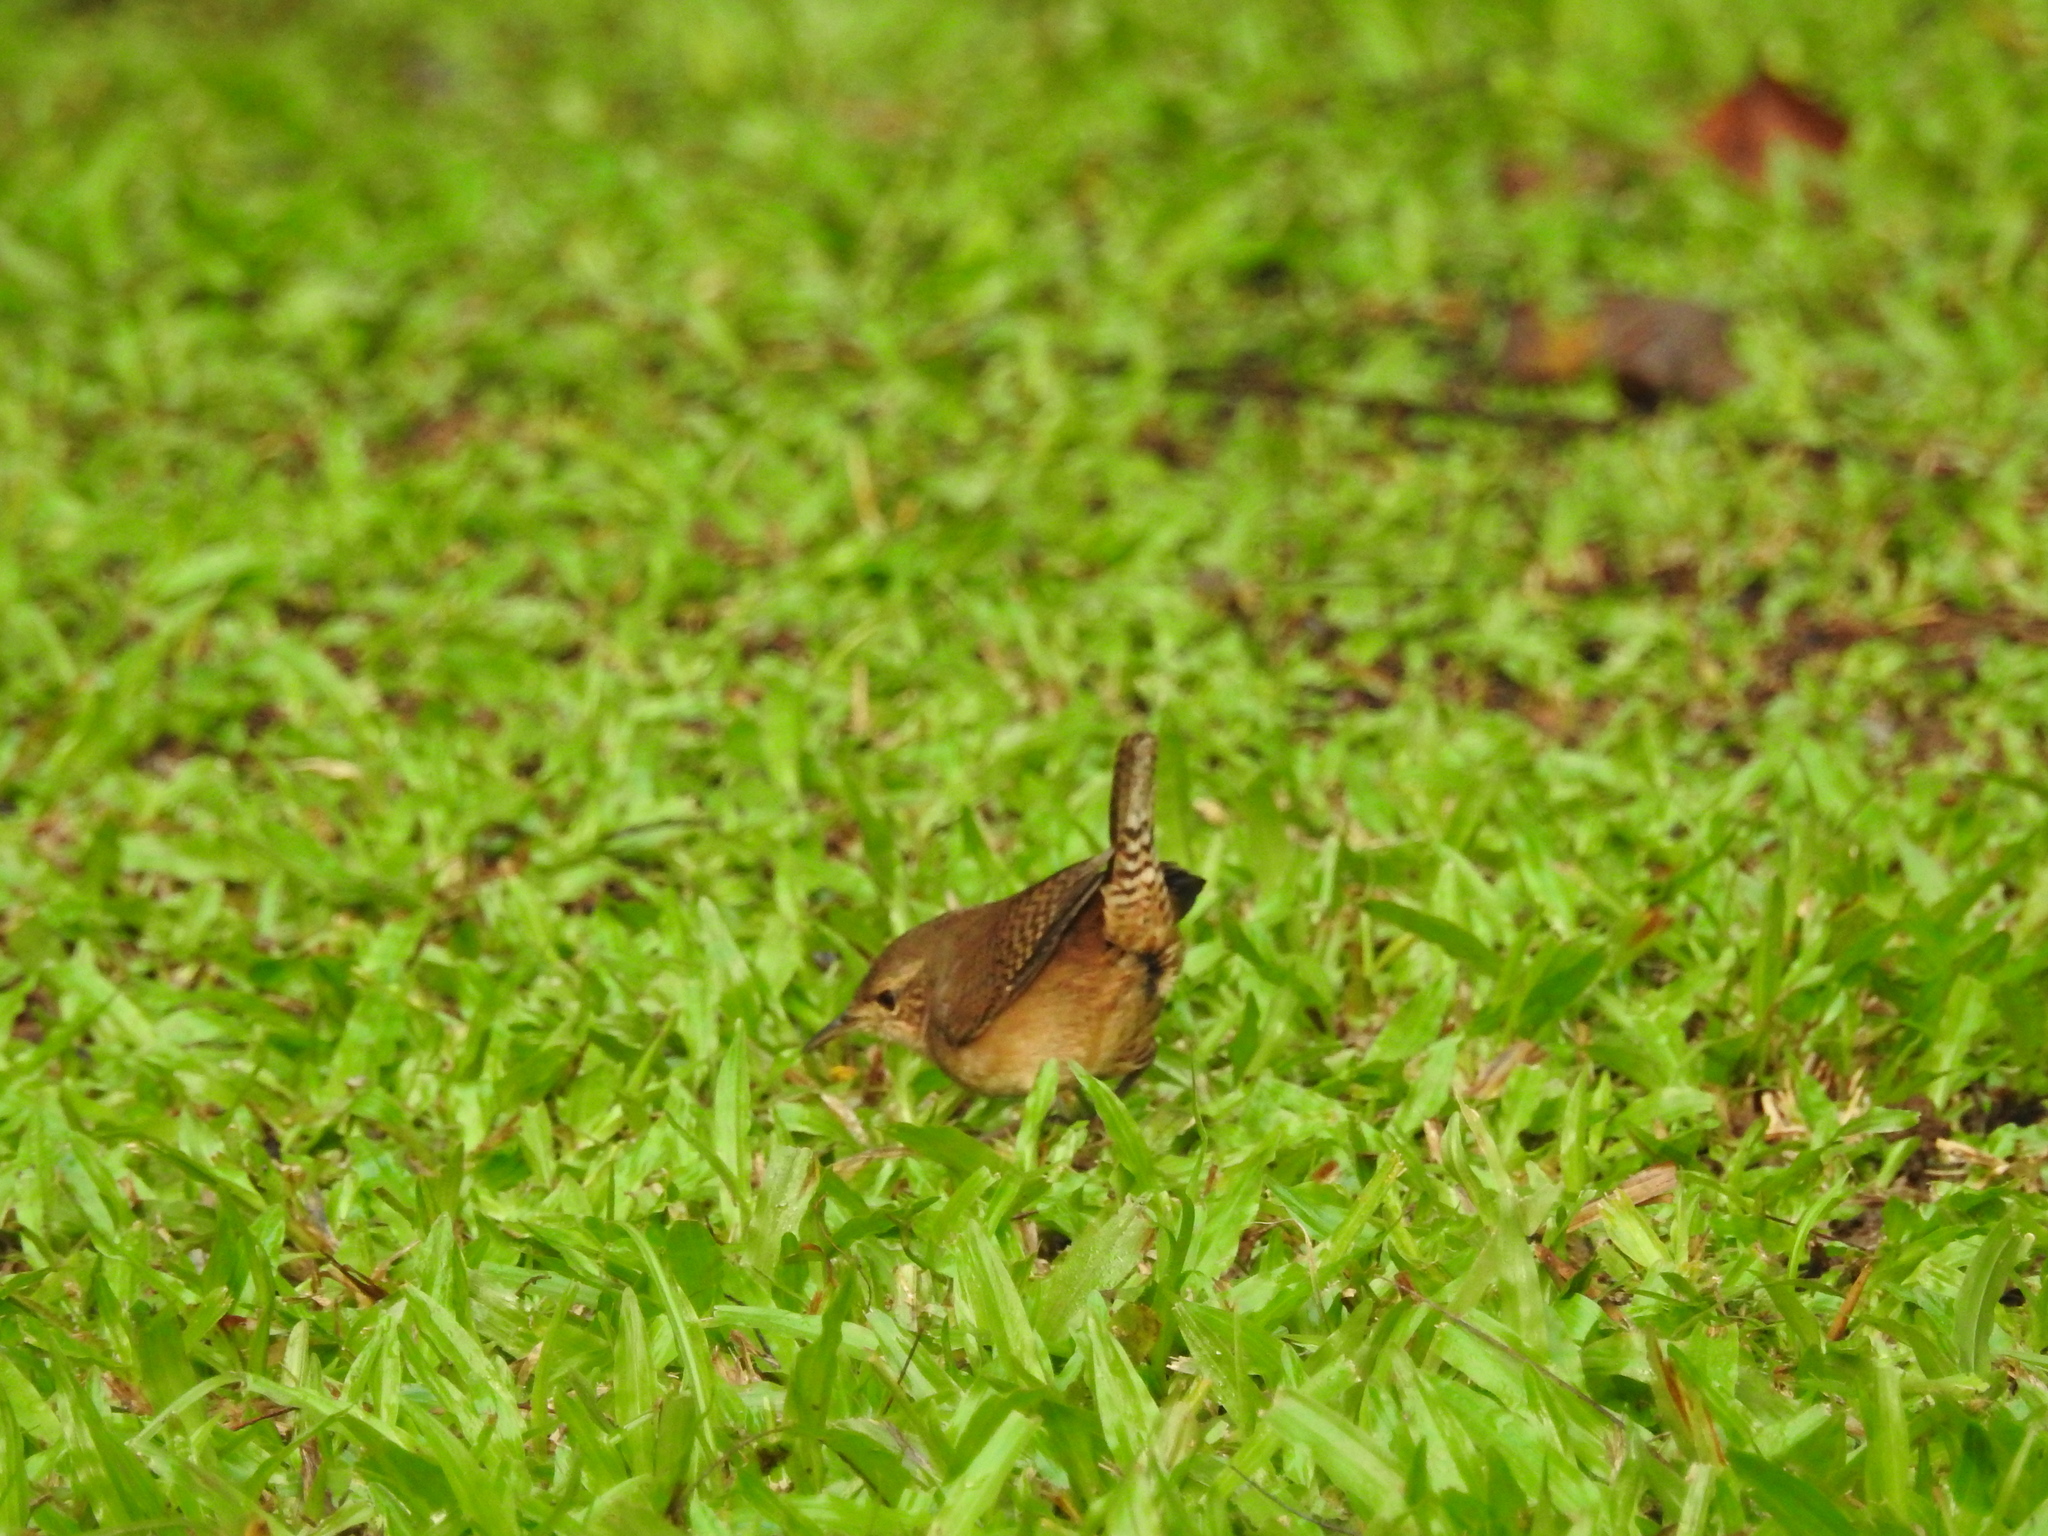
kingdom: Animalia
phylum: Chordata
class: Aves
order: Passeriformes
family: Troglodytidae
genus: Troglodytes
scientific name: Troglodytes aedon
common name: House wren
